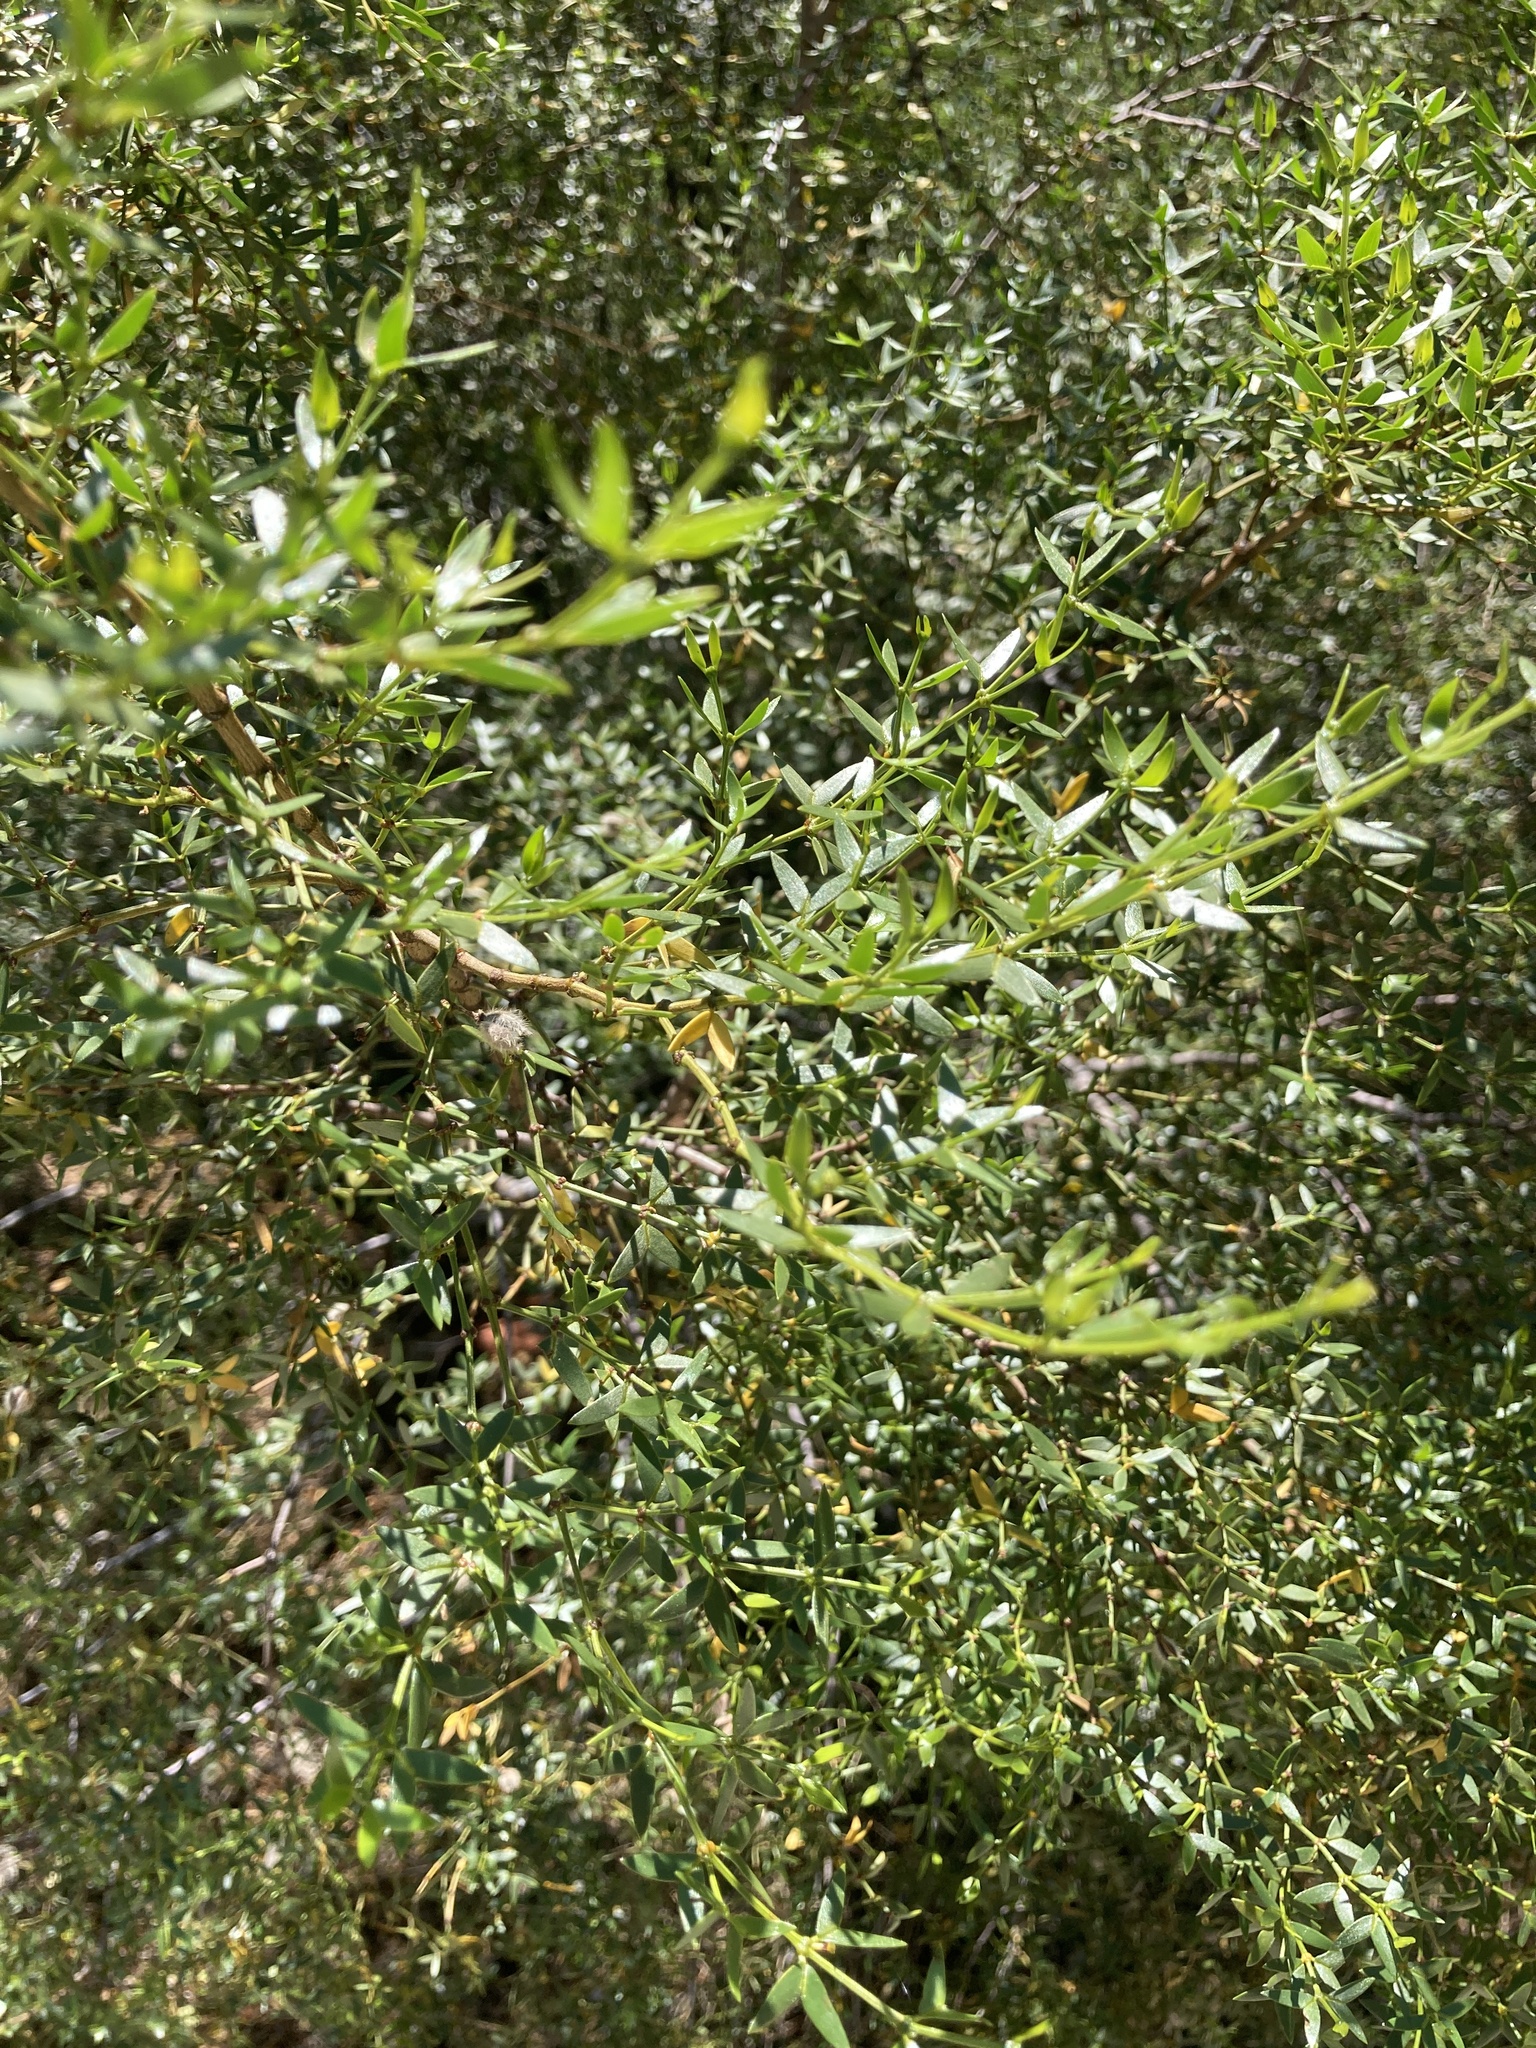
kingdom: Plantae
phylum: Tracheophyta
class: Magnoliopsida
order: Zygophyllales
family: Zygophyllaceae
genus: Larrea
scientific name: Larrea divaricata
